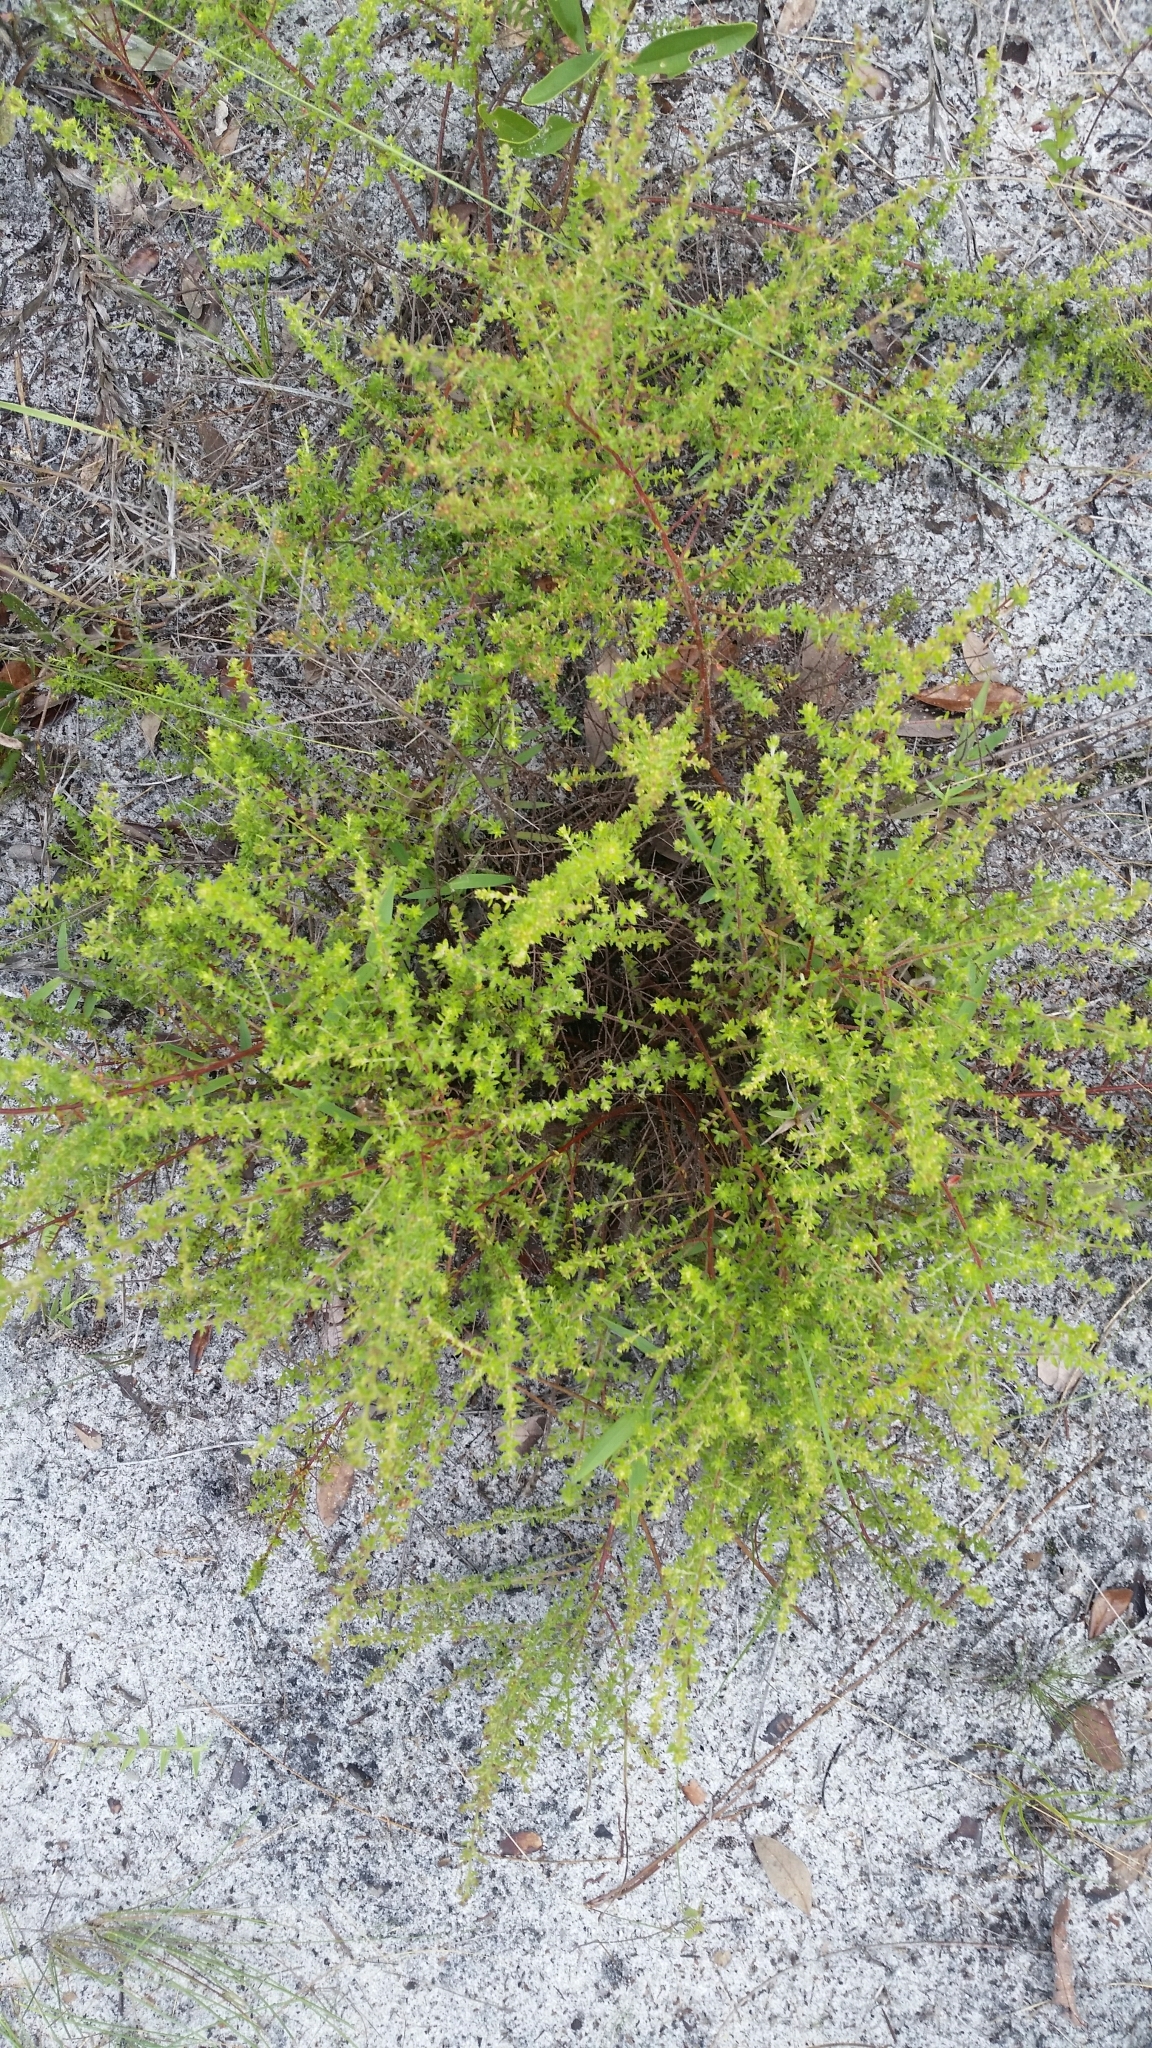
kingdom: Plantae
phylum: Tracheophyta
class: Magnoliopsida
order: Malvales
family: Cistaceae
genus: Lechea
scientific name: Lechea divaricata
